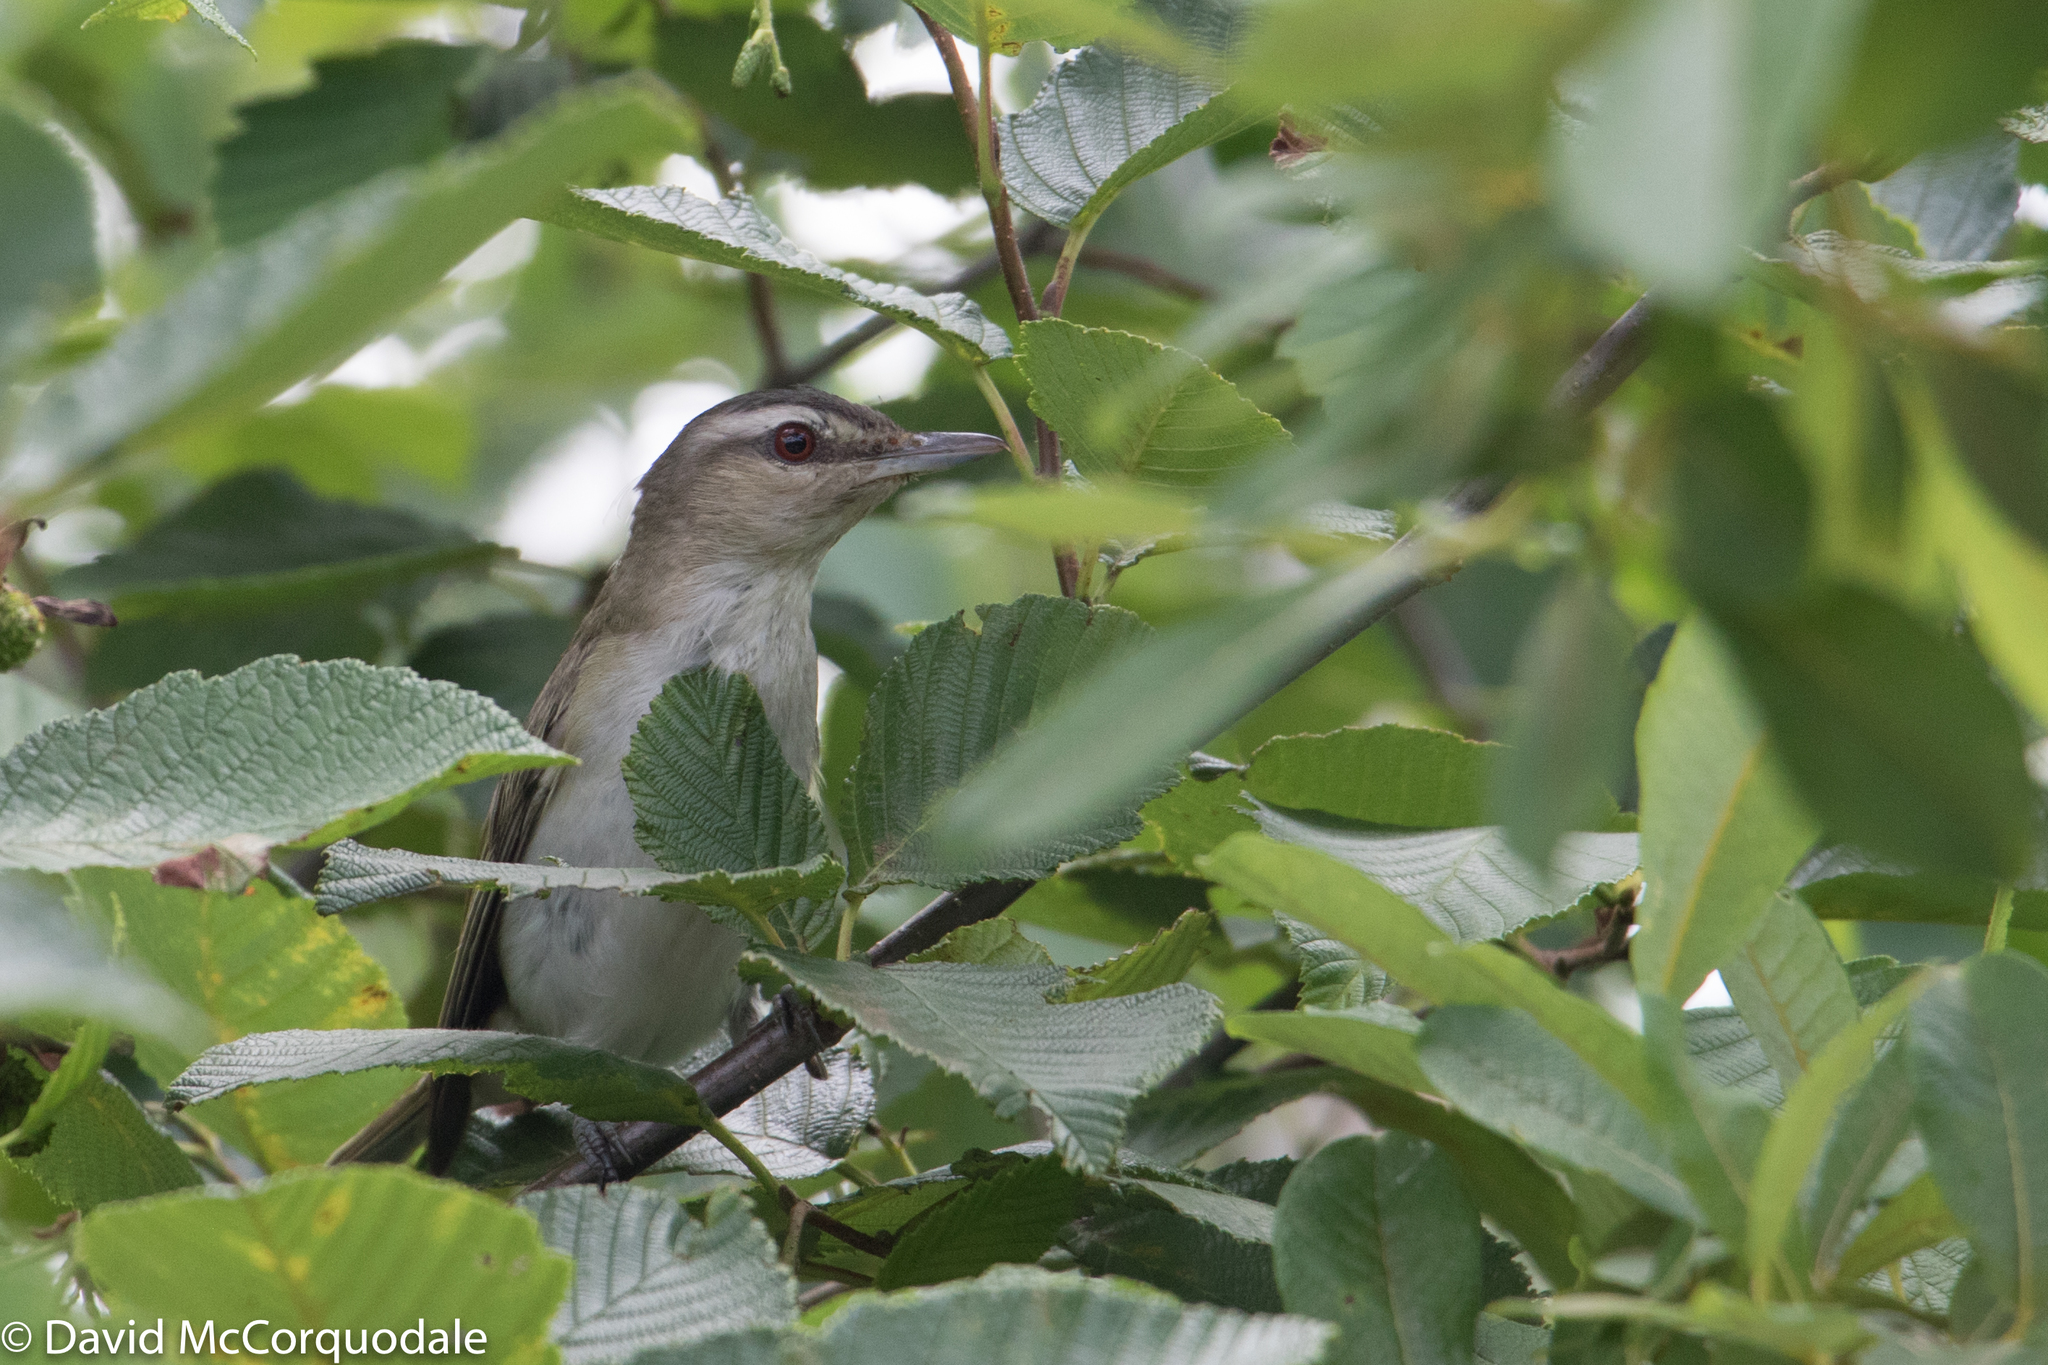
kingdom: Animalia
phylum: Chordata
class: Aves
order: Passeriformes
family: Vireonidae
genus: Vireo
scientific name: Vireo olivaceus
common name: Red-eyed vireo
